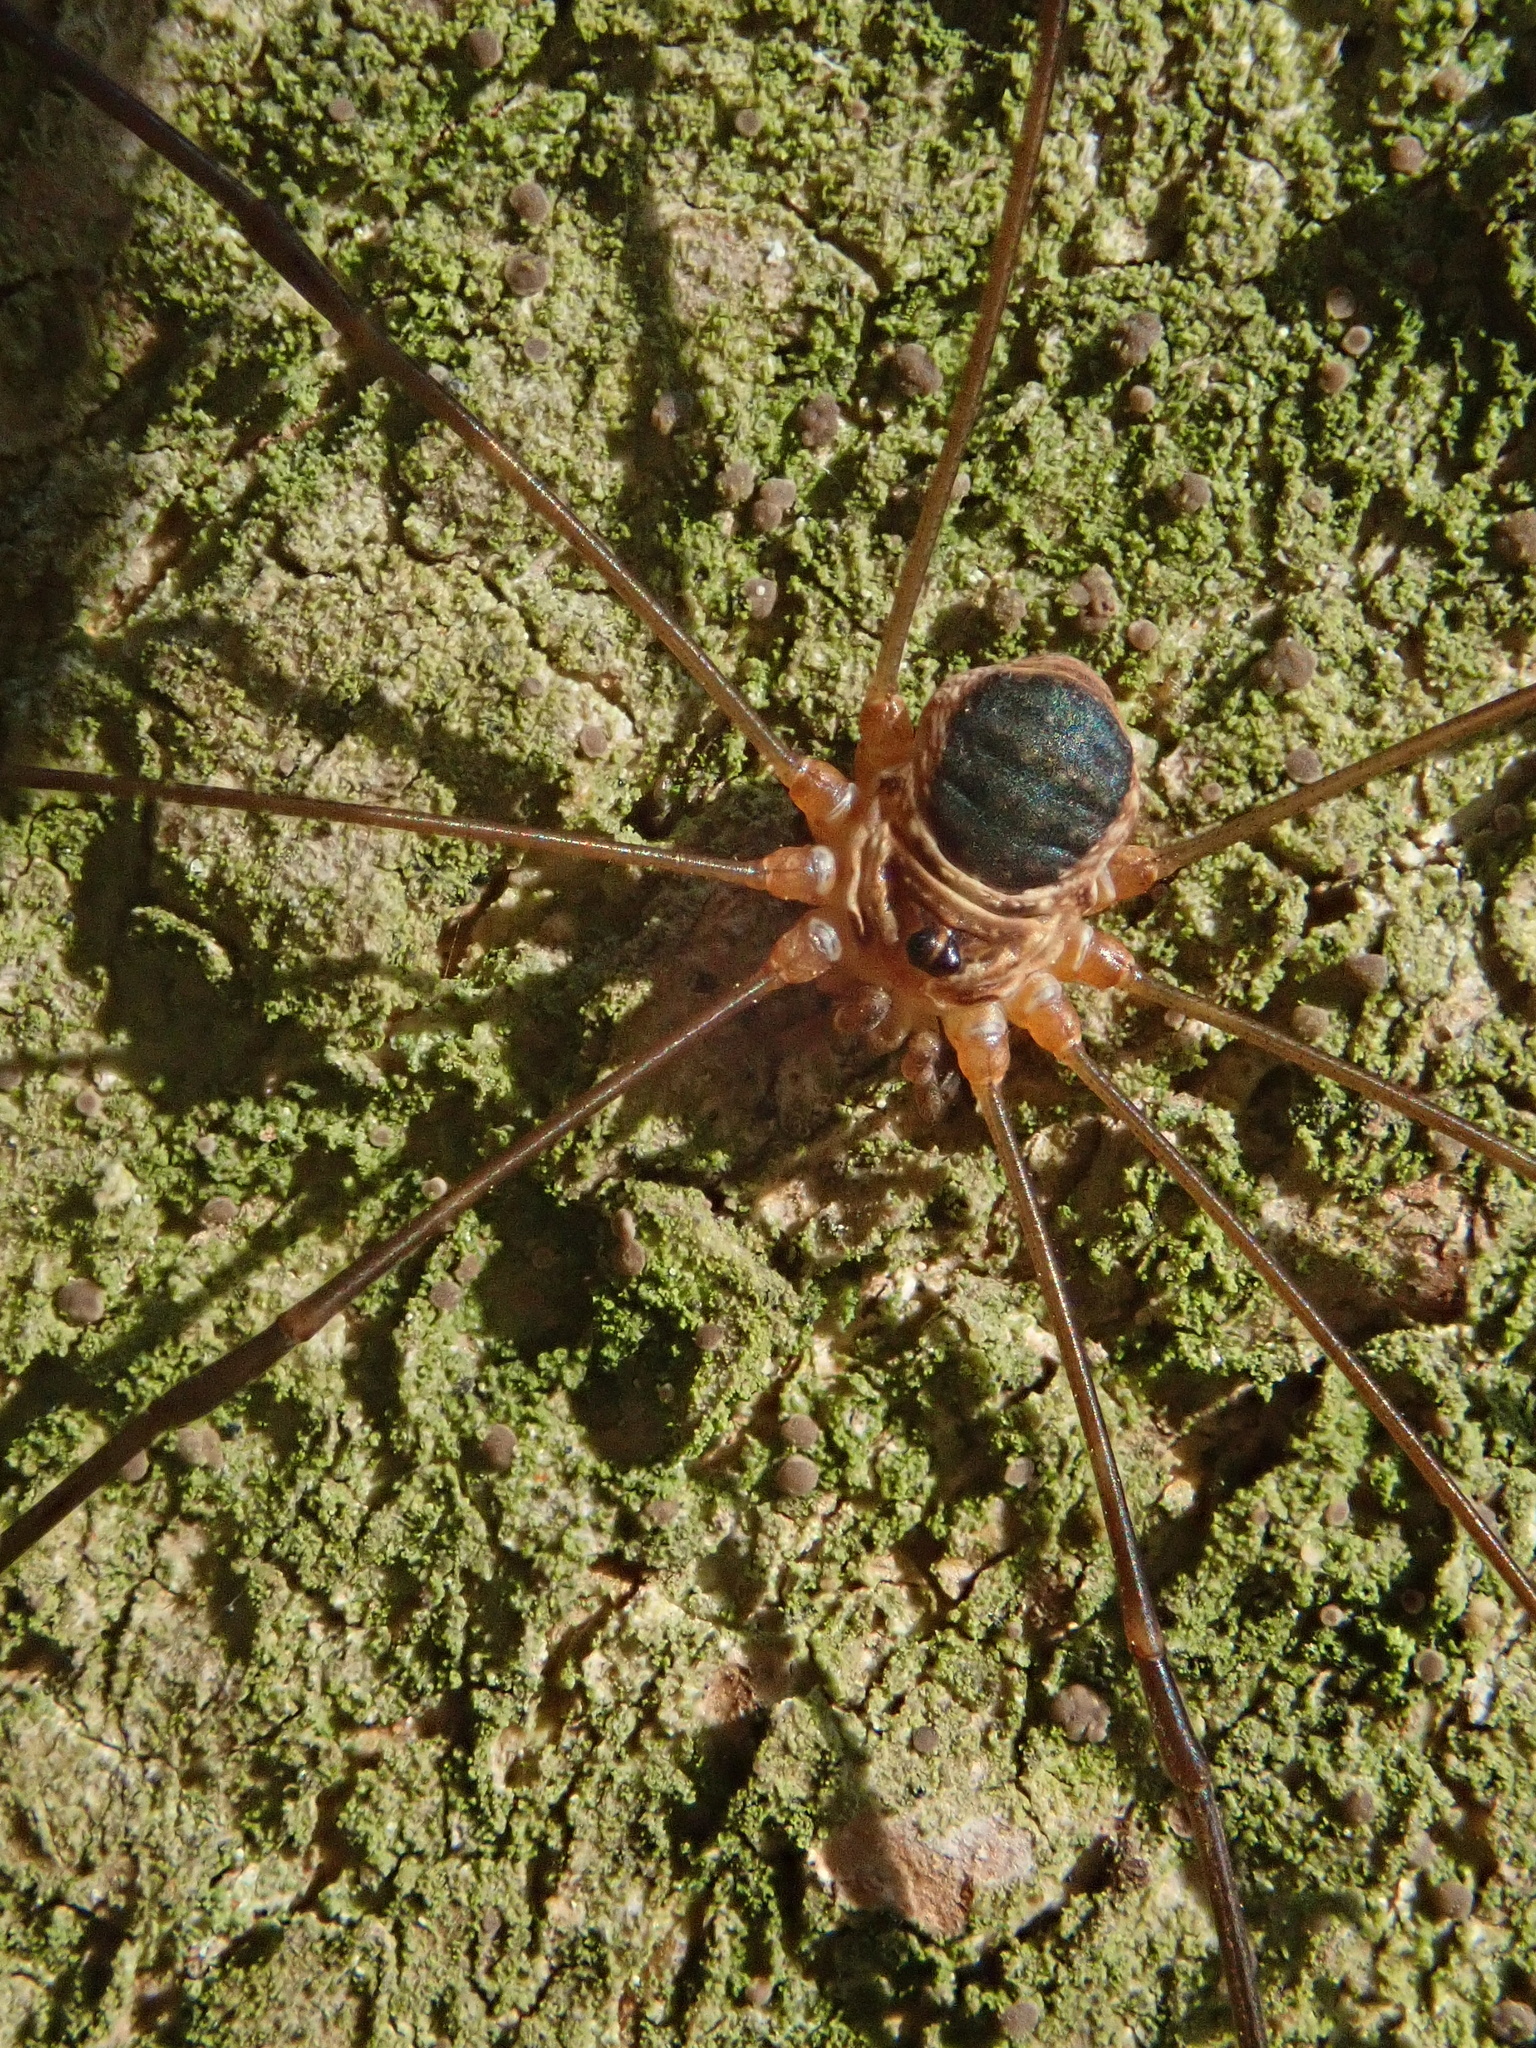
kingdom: Animalia
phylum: Arthropoda
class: Arachnida
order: Opiliones
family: Phalangiidae
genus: Amilenus
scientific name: Amilenus aurantiacus
